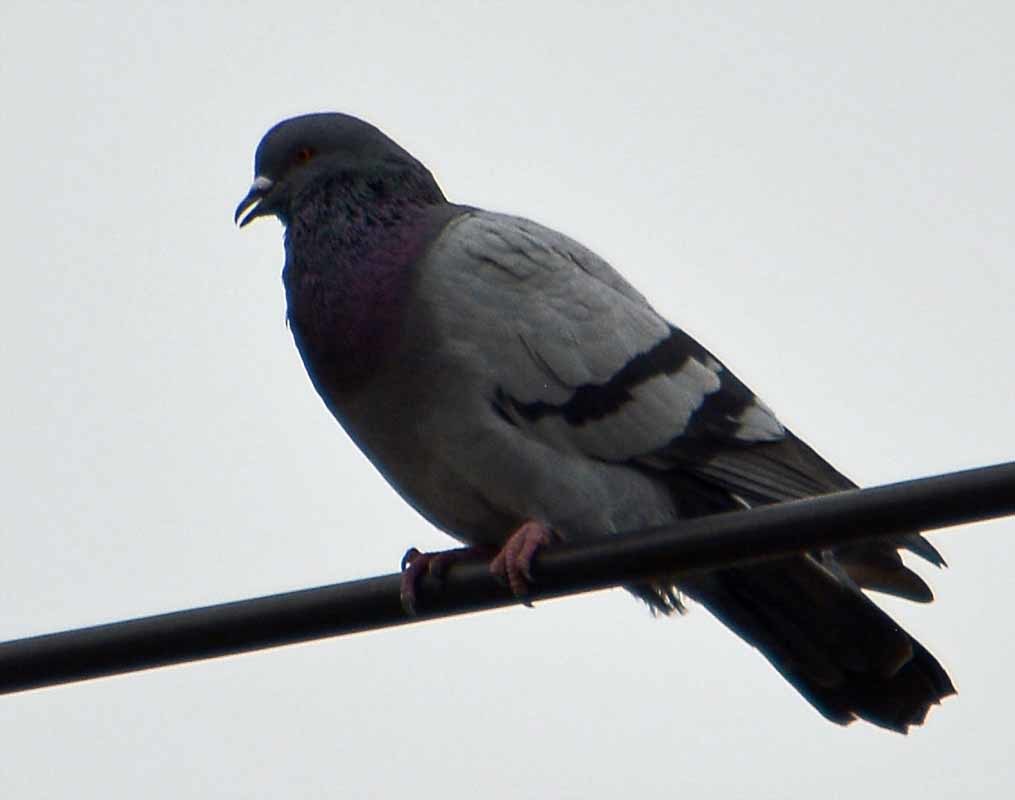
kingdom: Animalia
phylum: Chordata
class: Aves
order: Columbiformes
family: Columbidae
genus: Columba
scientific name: Columba livia
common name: Rock pigeon
